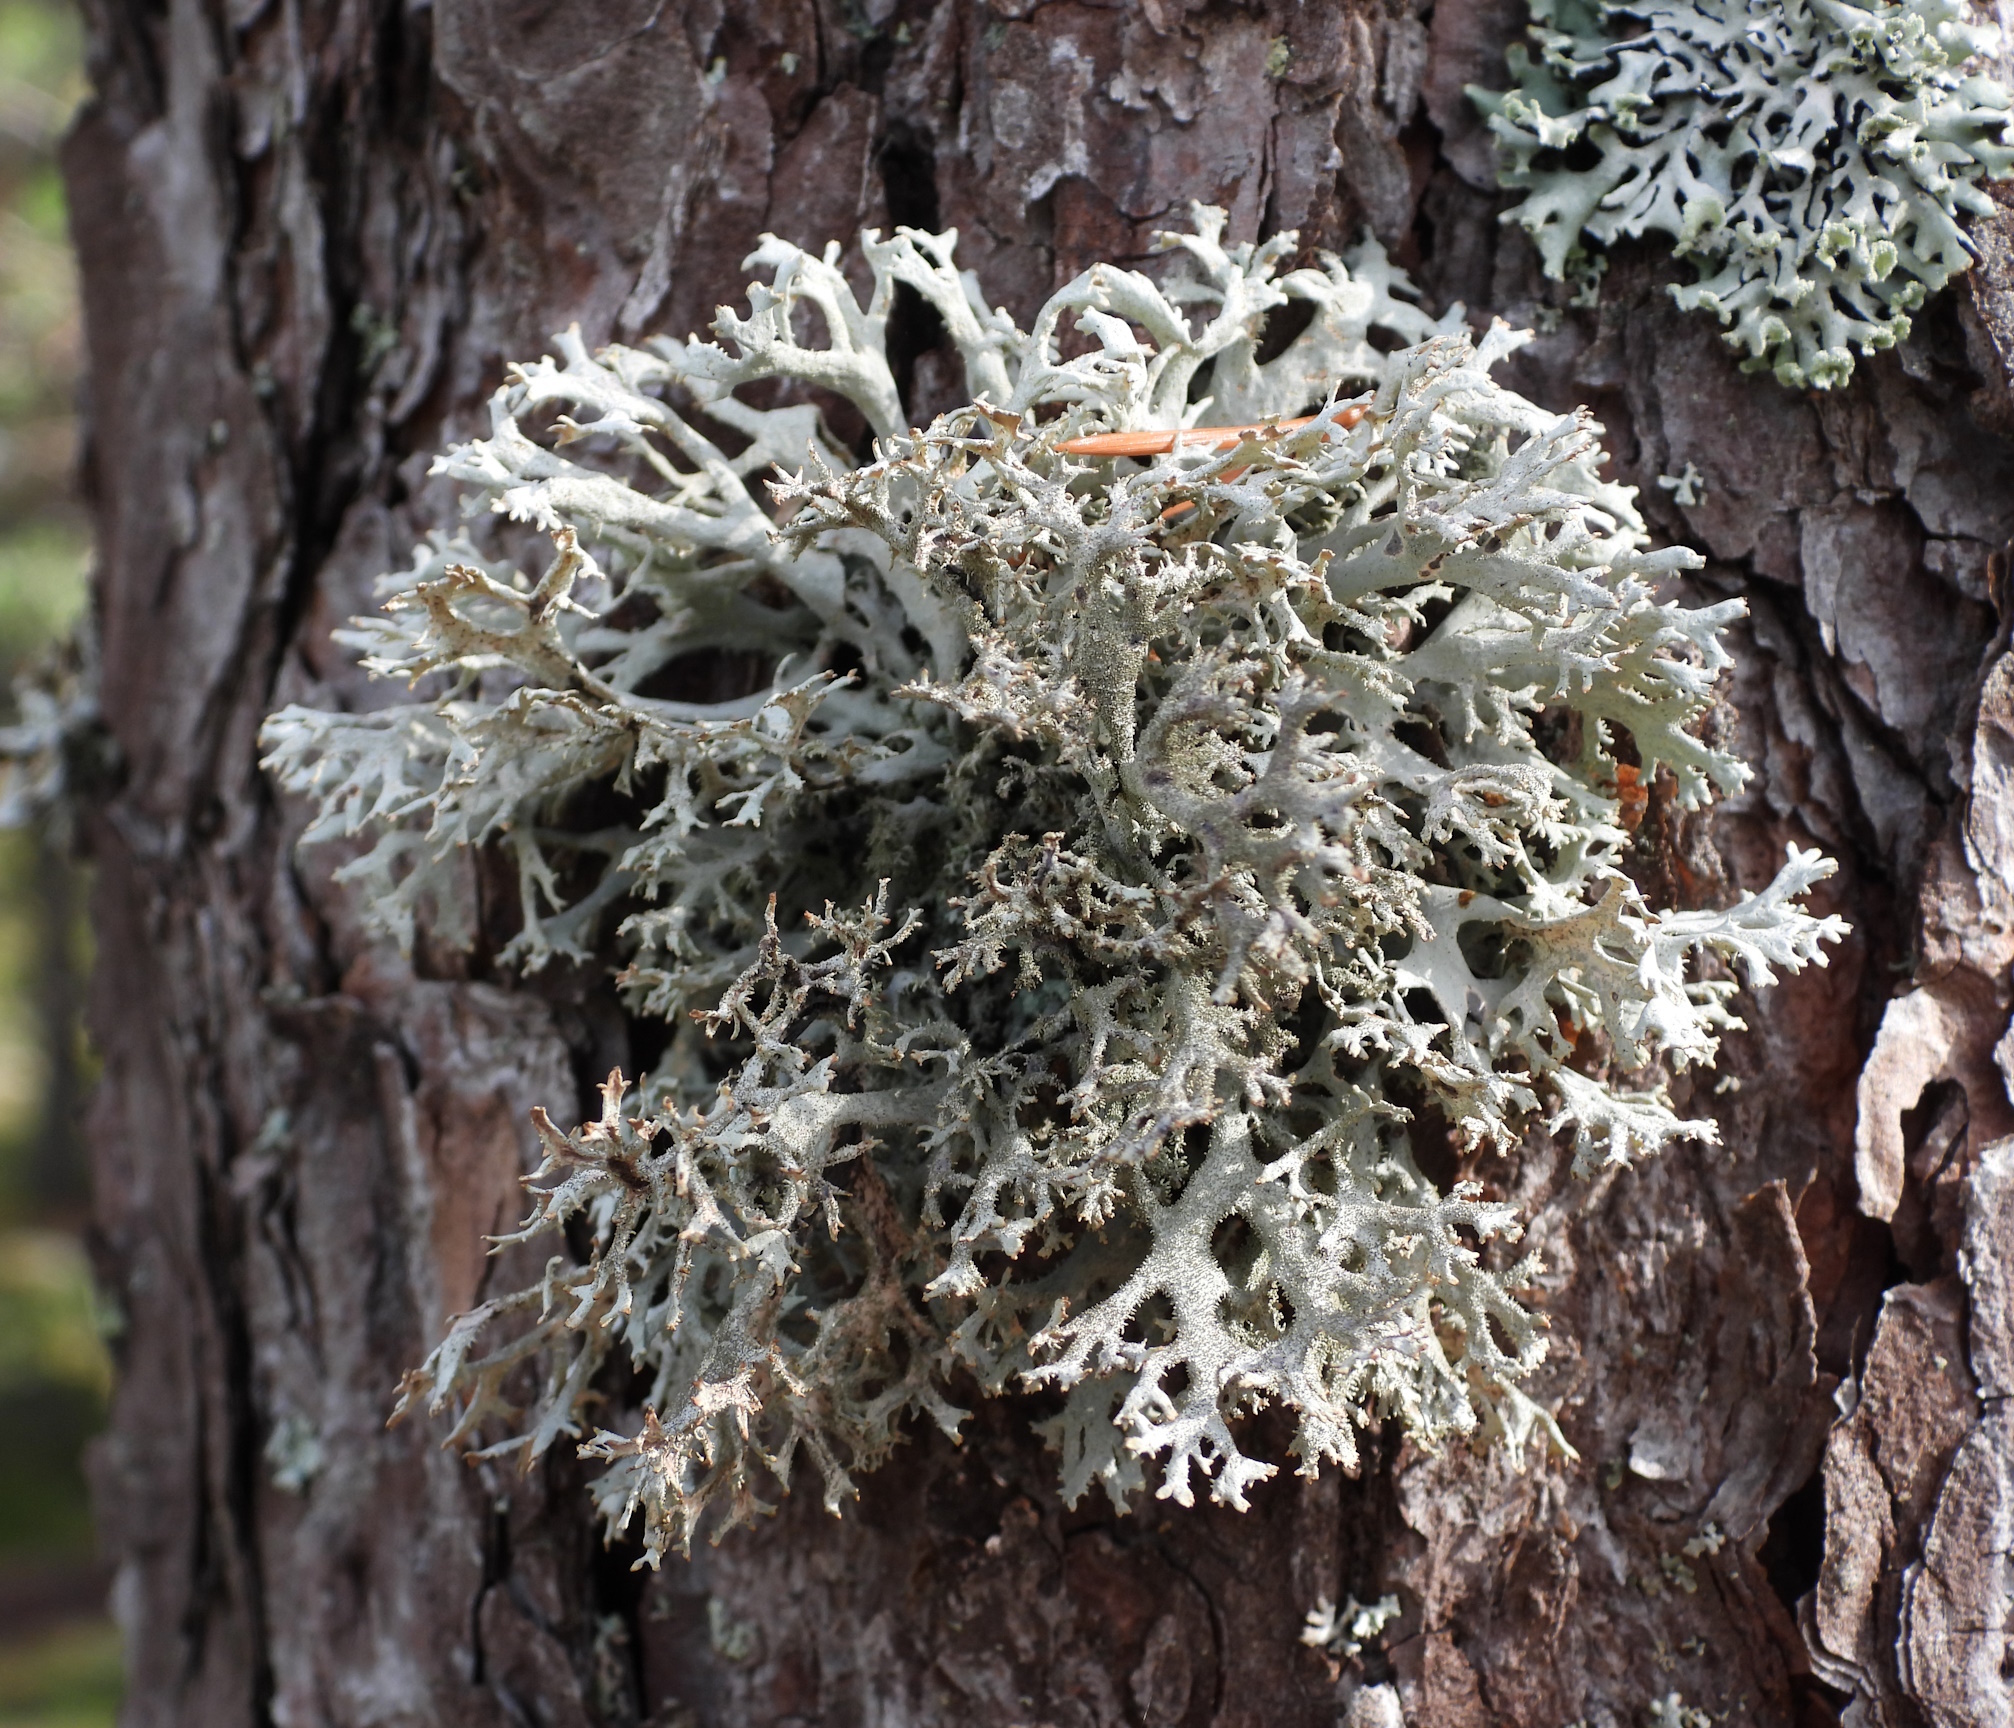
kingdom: Fungi
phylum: Ascomycota
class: Lecanoromycetes
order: Lecanorales
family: Parmeliaceae
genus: Pseudevernia
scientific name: Pseudevernia furfuracea
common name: Tree moss
